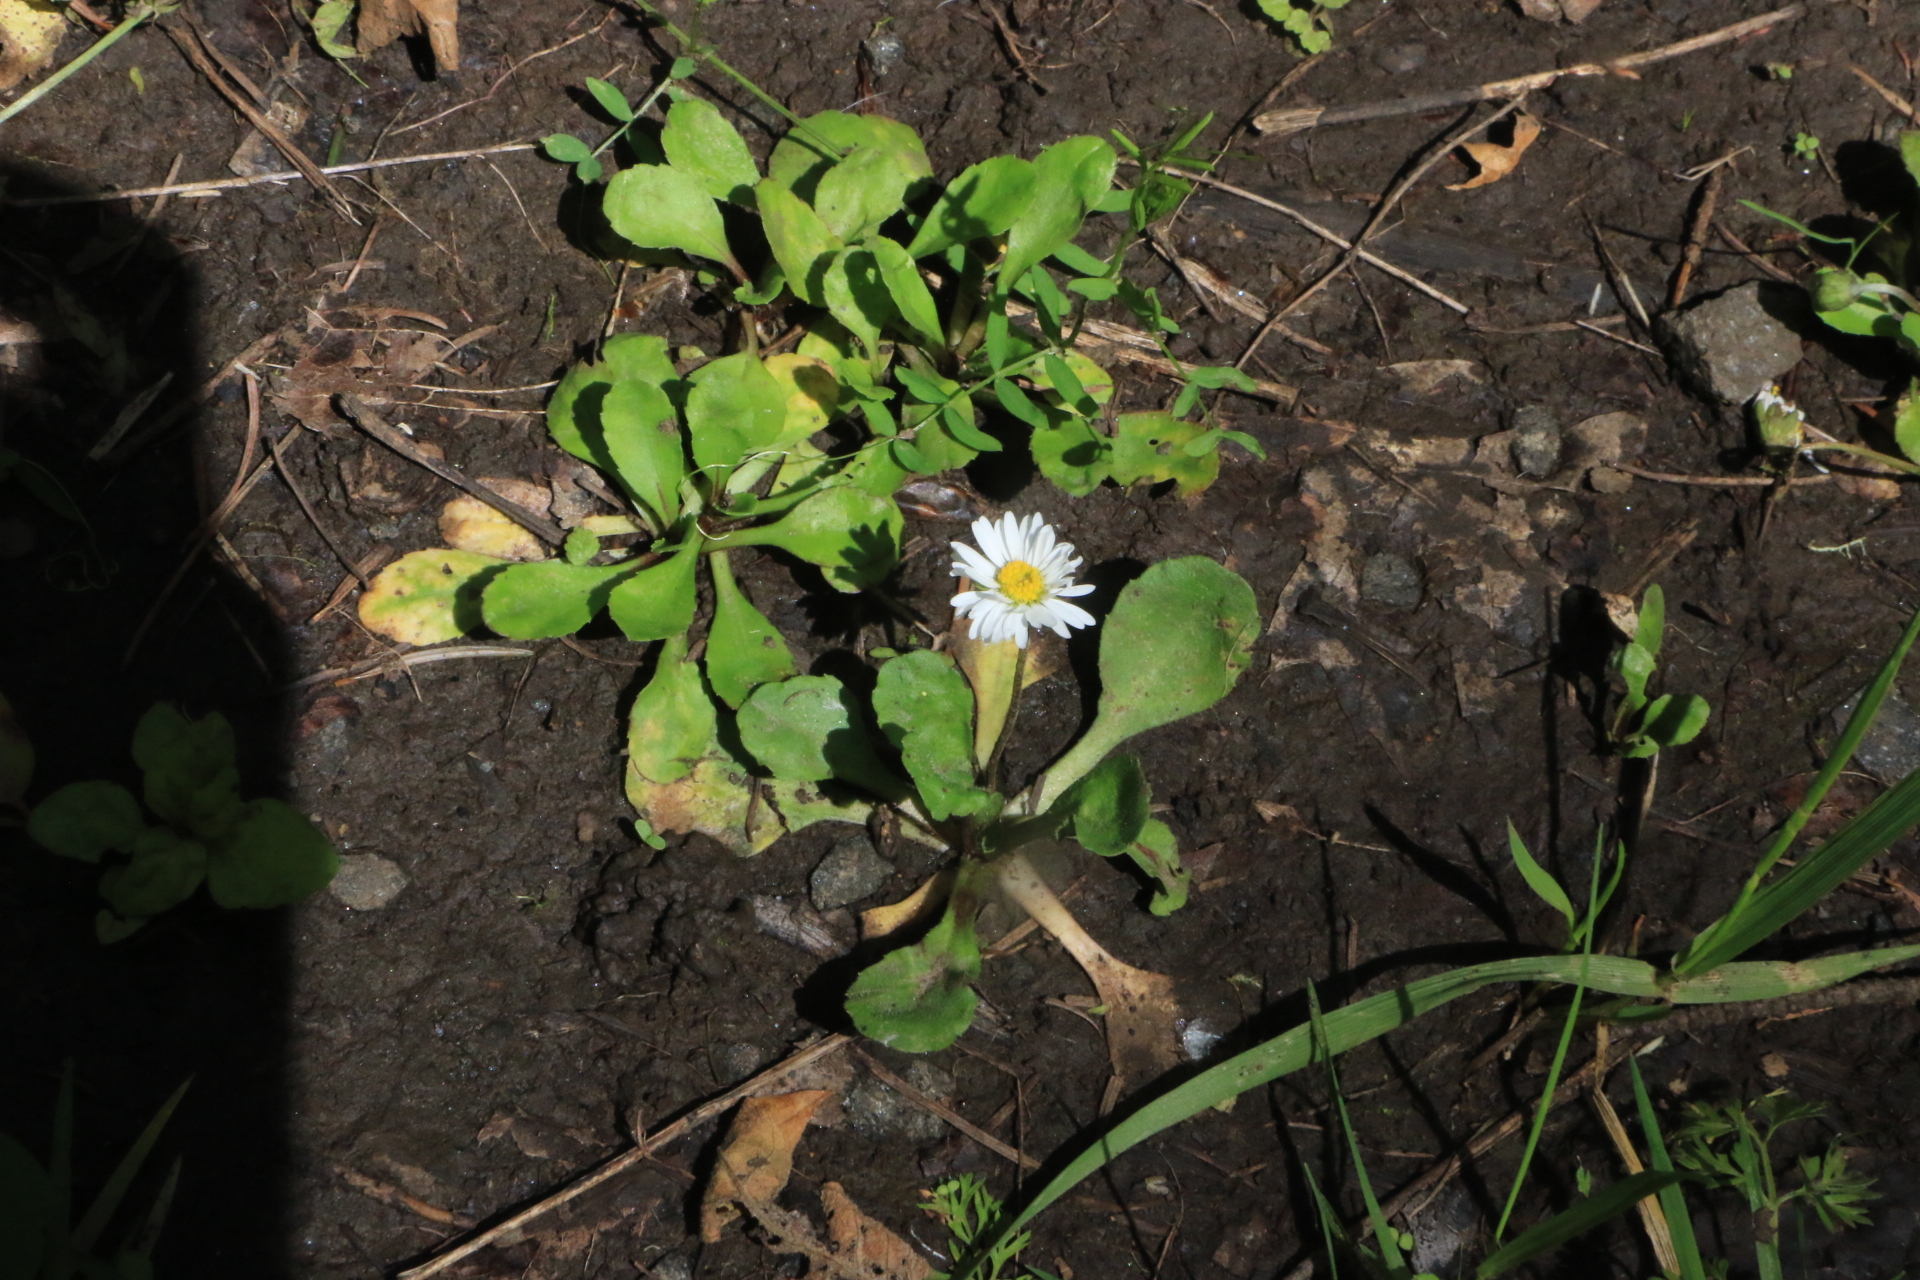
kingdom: Plantae
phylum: Tracheophyta
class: Magnoliopsida
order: Asterales
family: Asteraceae
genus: Bellis
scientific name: Bellis perennis
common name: Lawndaisy
